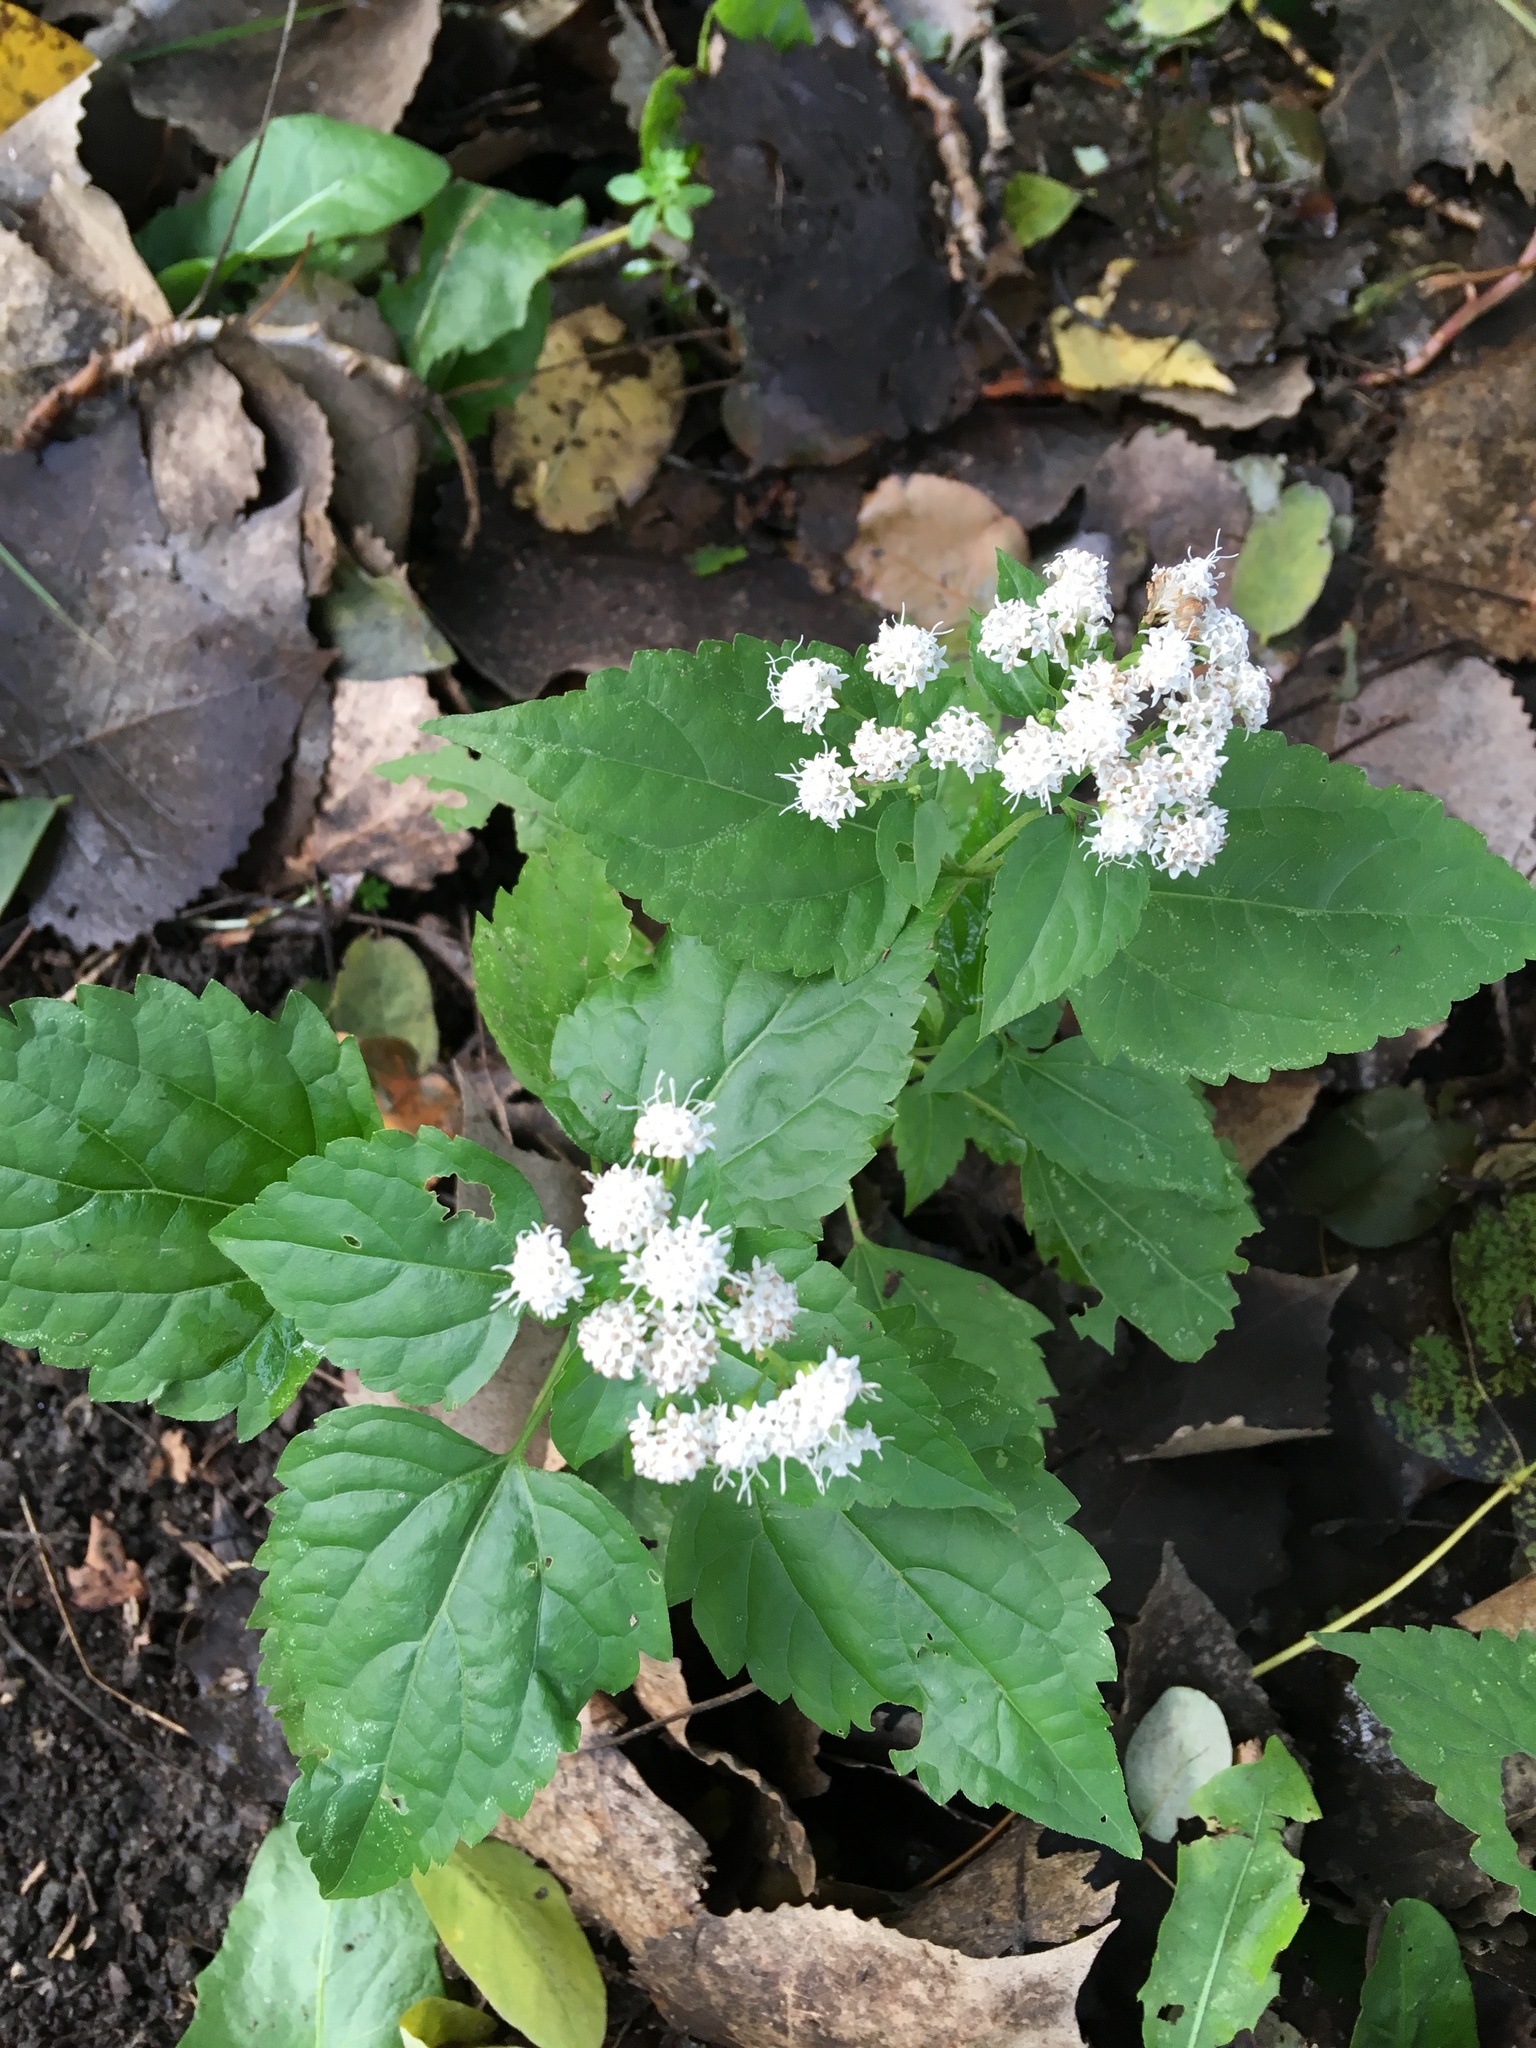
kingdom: Plantae
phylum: Tracheophyta
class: Magnoliopsida
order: Asterales
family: Asteraceae
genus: Ageratina
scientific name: Ageratina altissima
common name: White snakeroot
